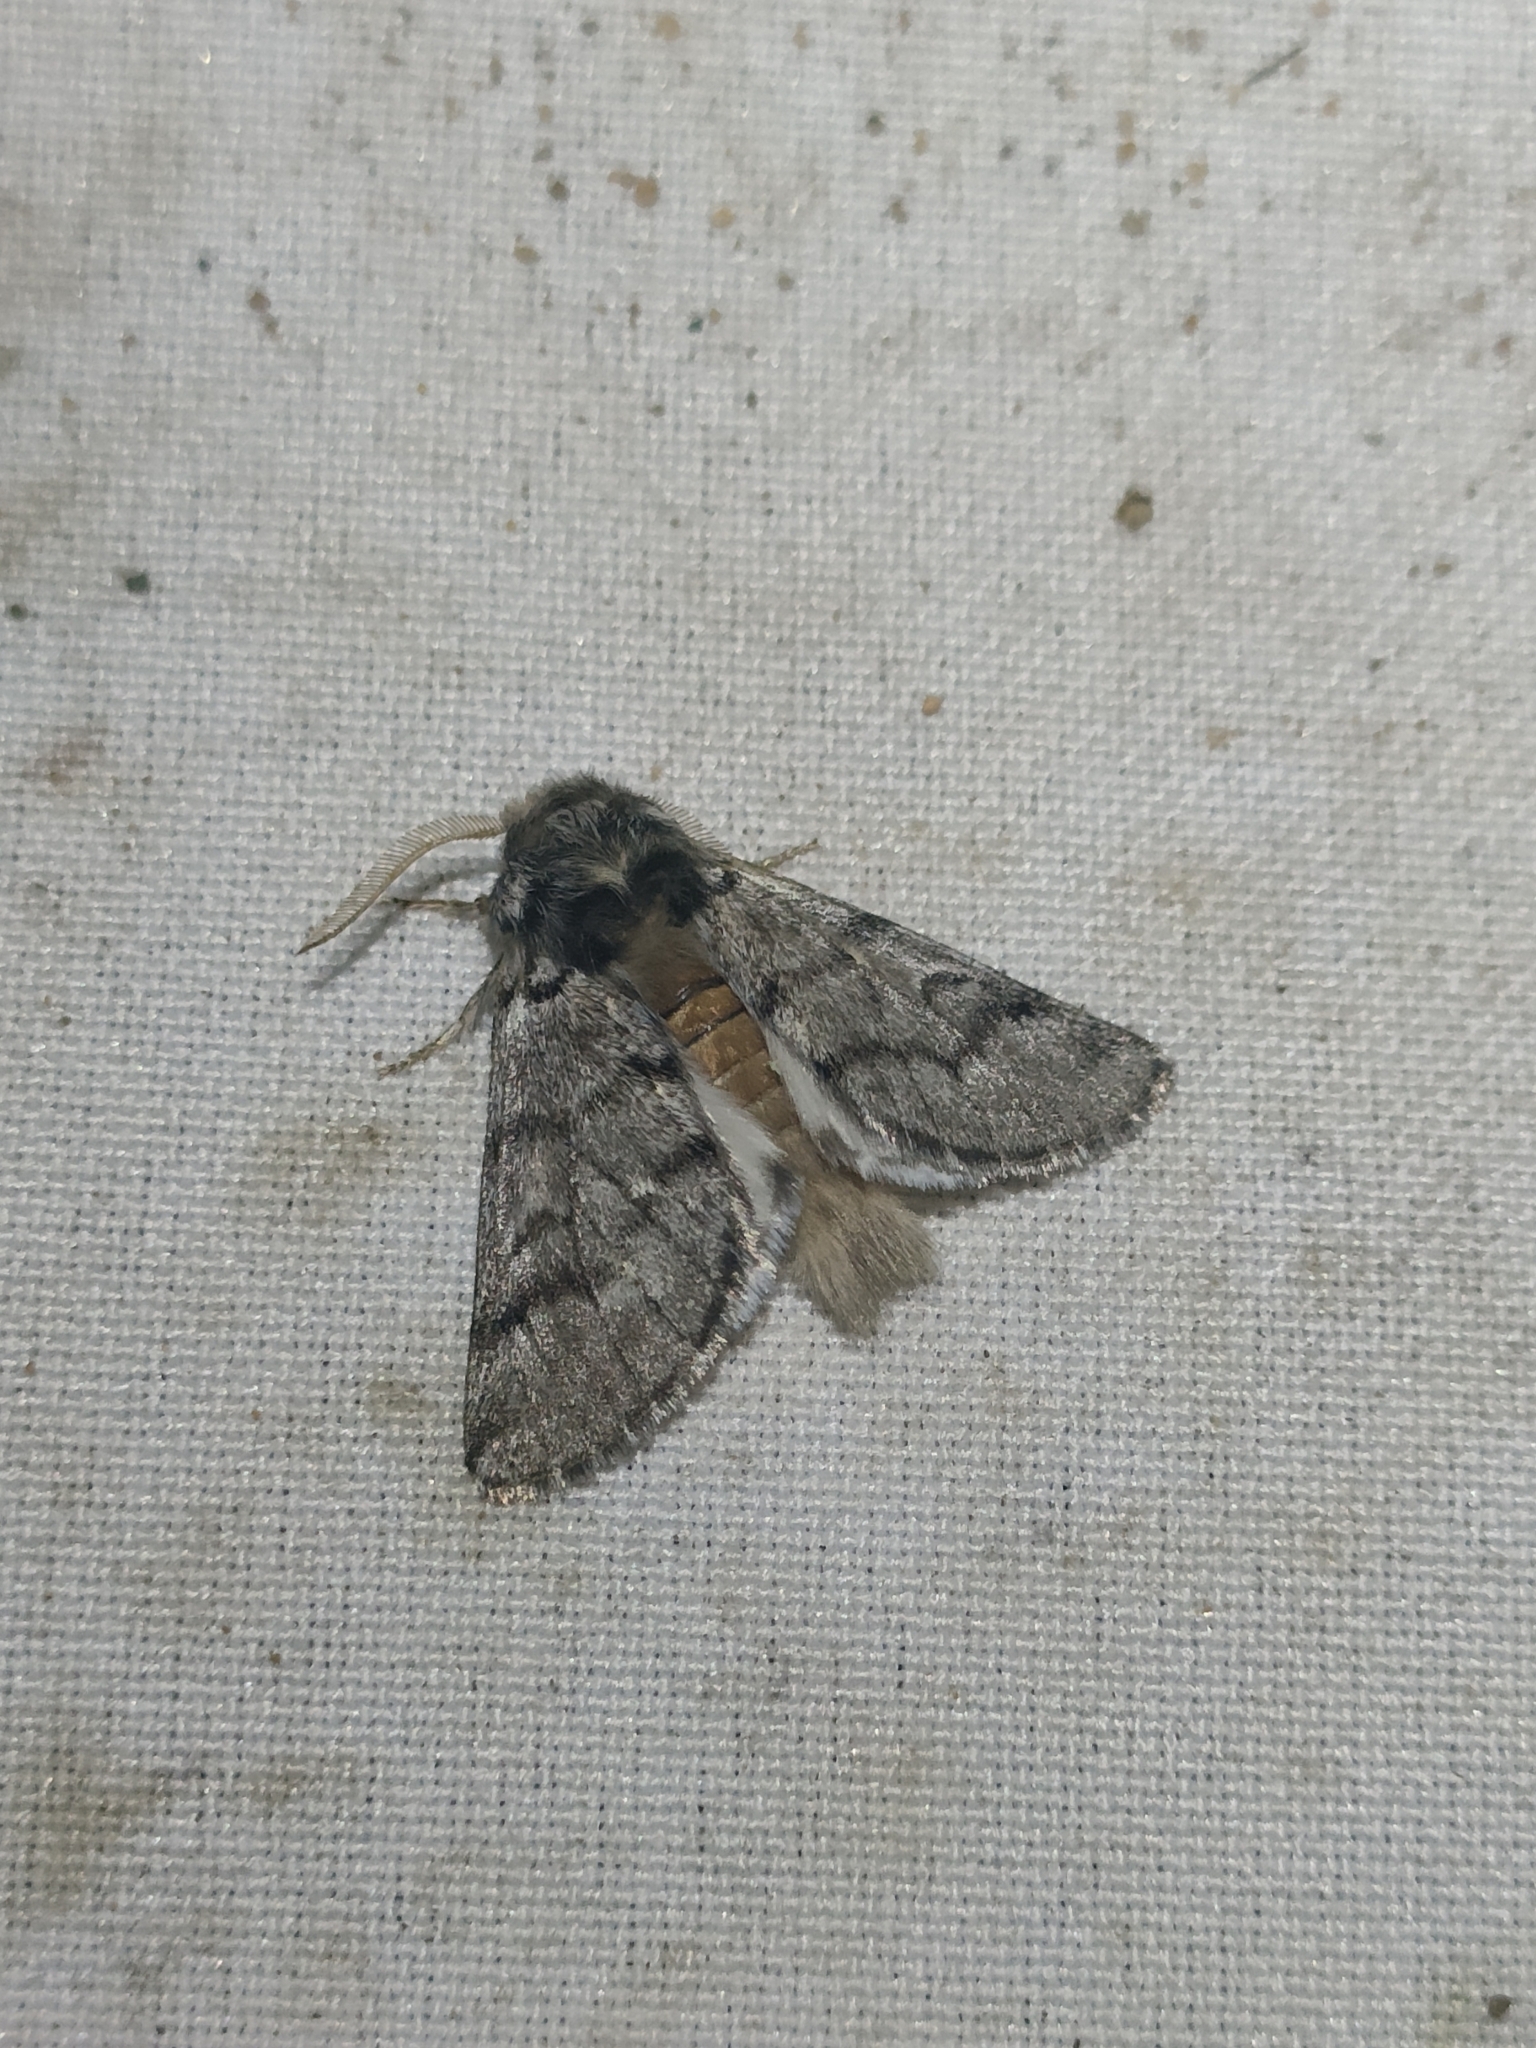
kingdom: Animalia
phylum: Arthropoda
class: Insecta
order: Lepidoptera
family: Notodontidae
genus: Thaumetopoea
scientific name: Thaumetopoea pityocampa
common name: Pine processionary
